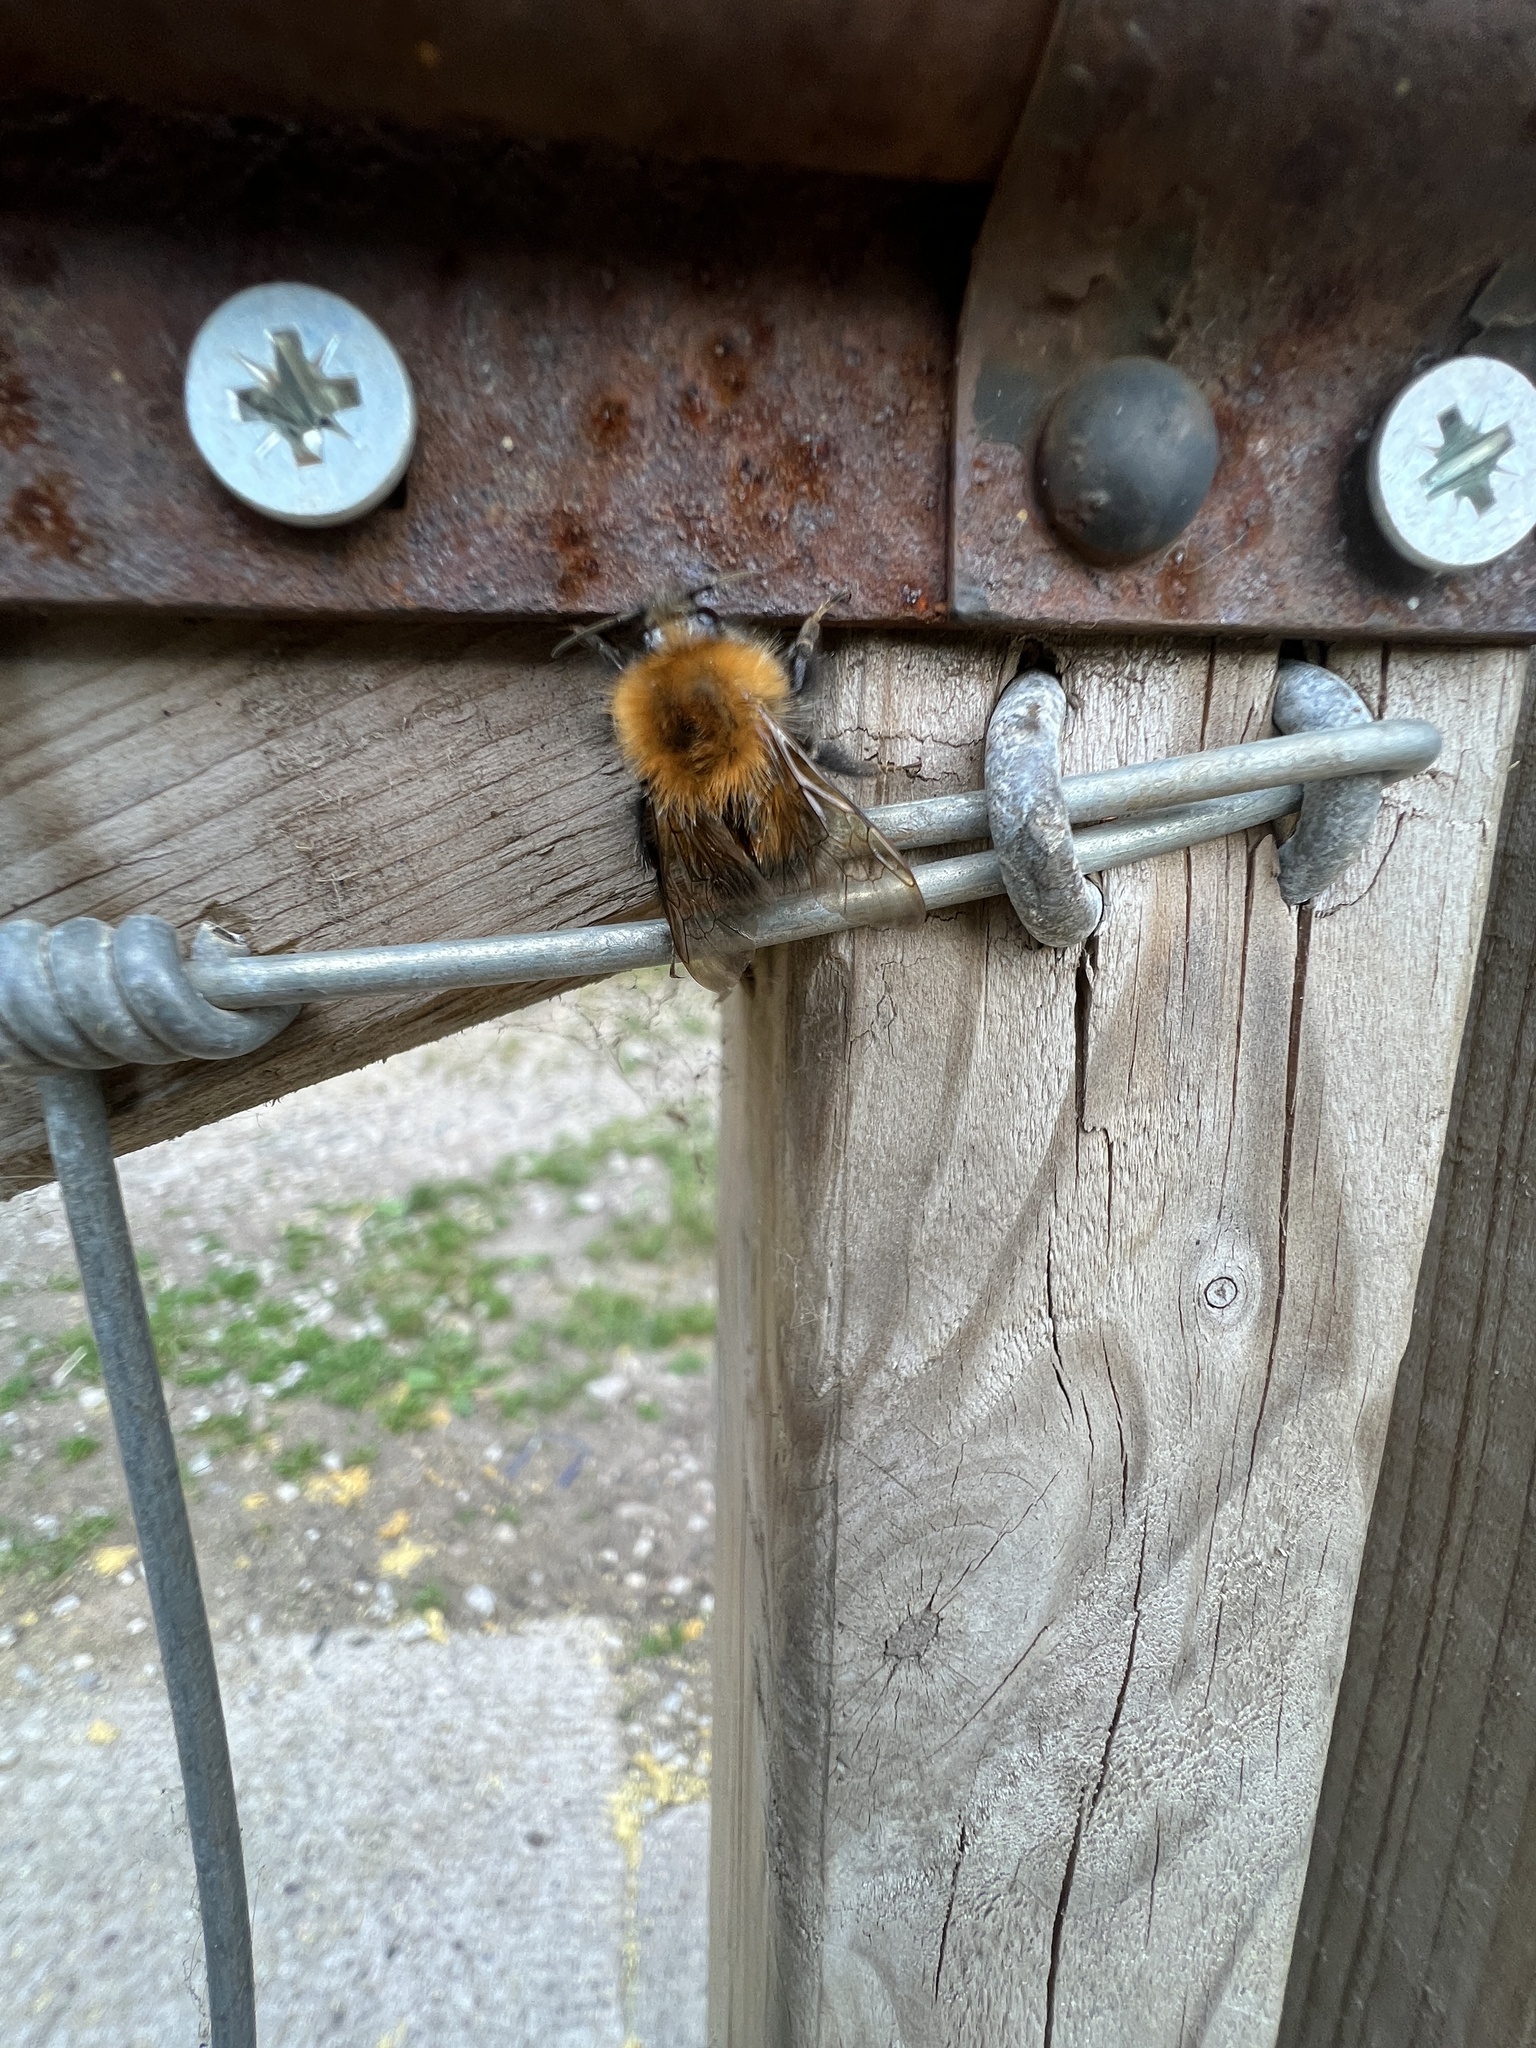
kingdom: Animalia
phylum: Arthropoda
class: Insecta
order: Hymenoptera
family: Apidae
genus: Bombus
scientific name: Bombus hypnorum
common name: New garden bumblebee
